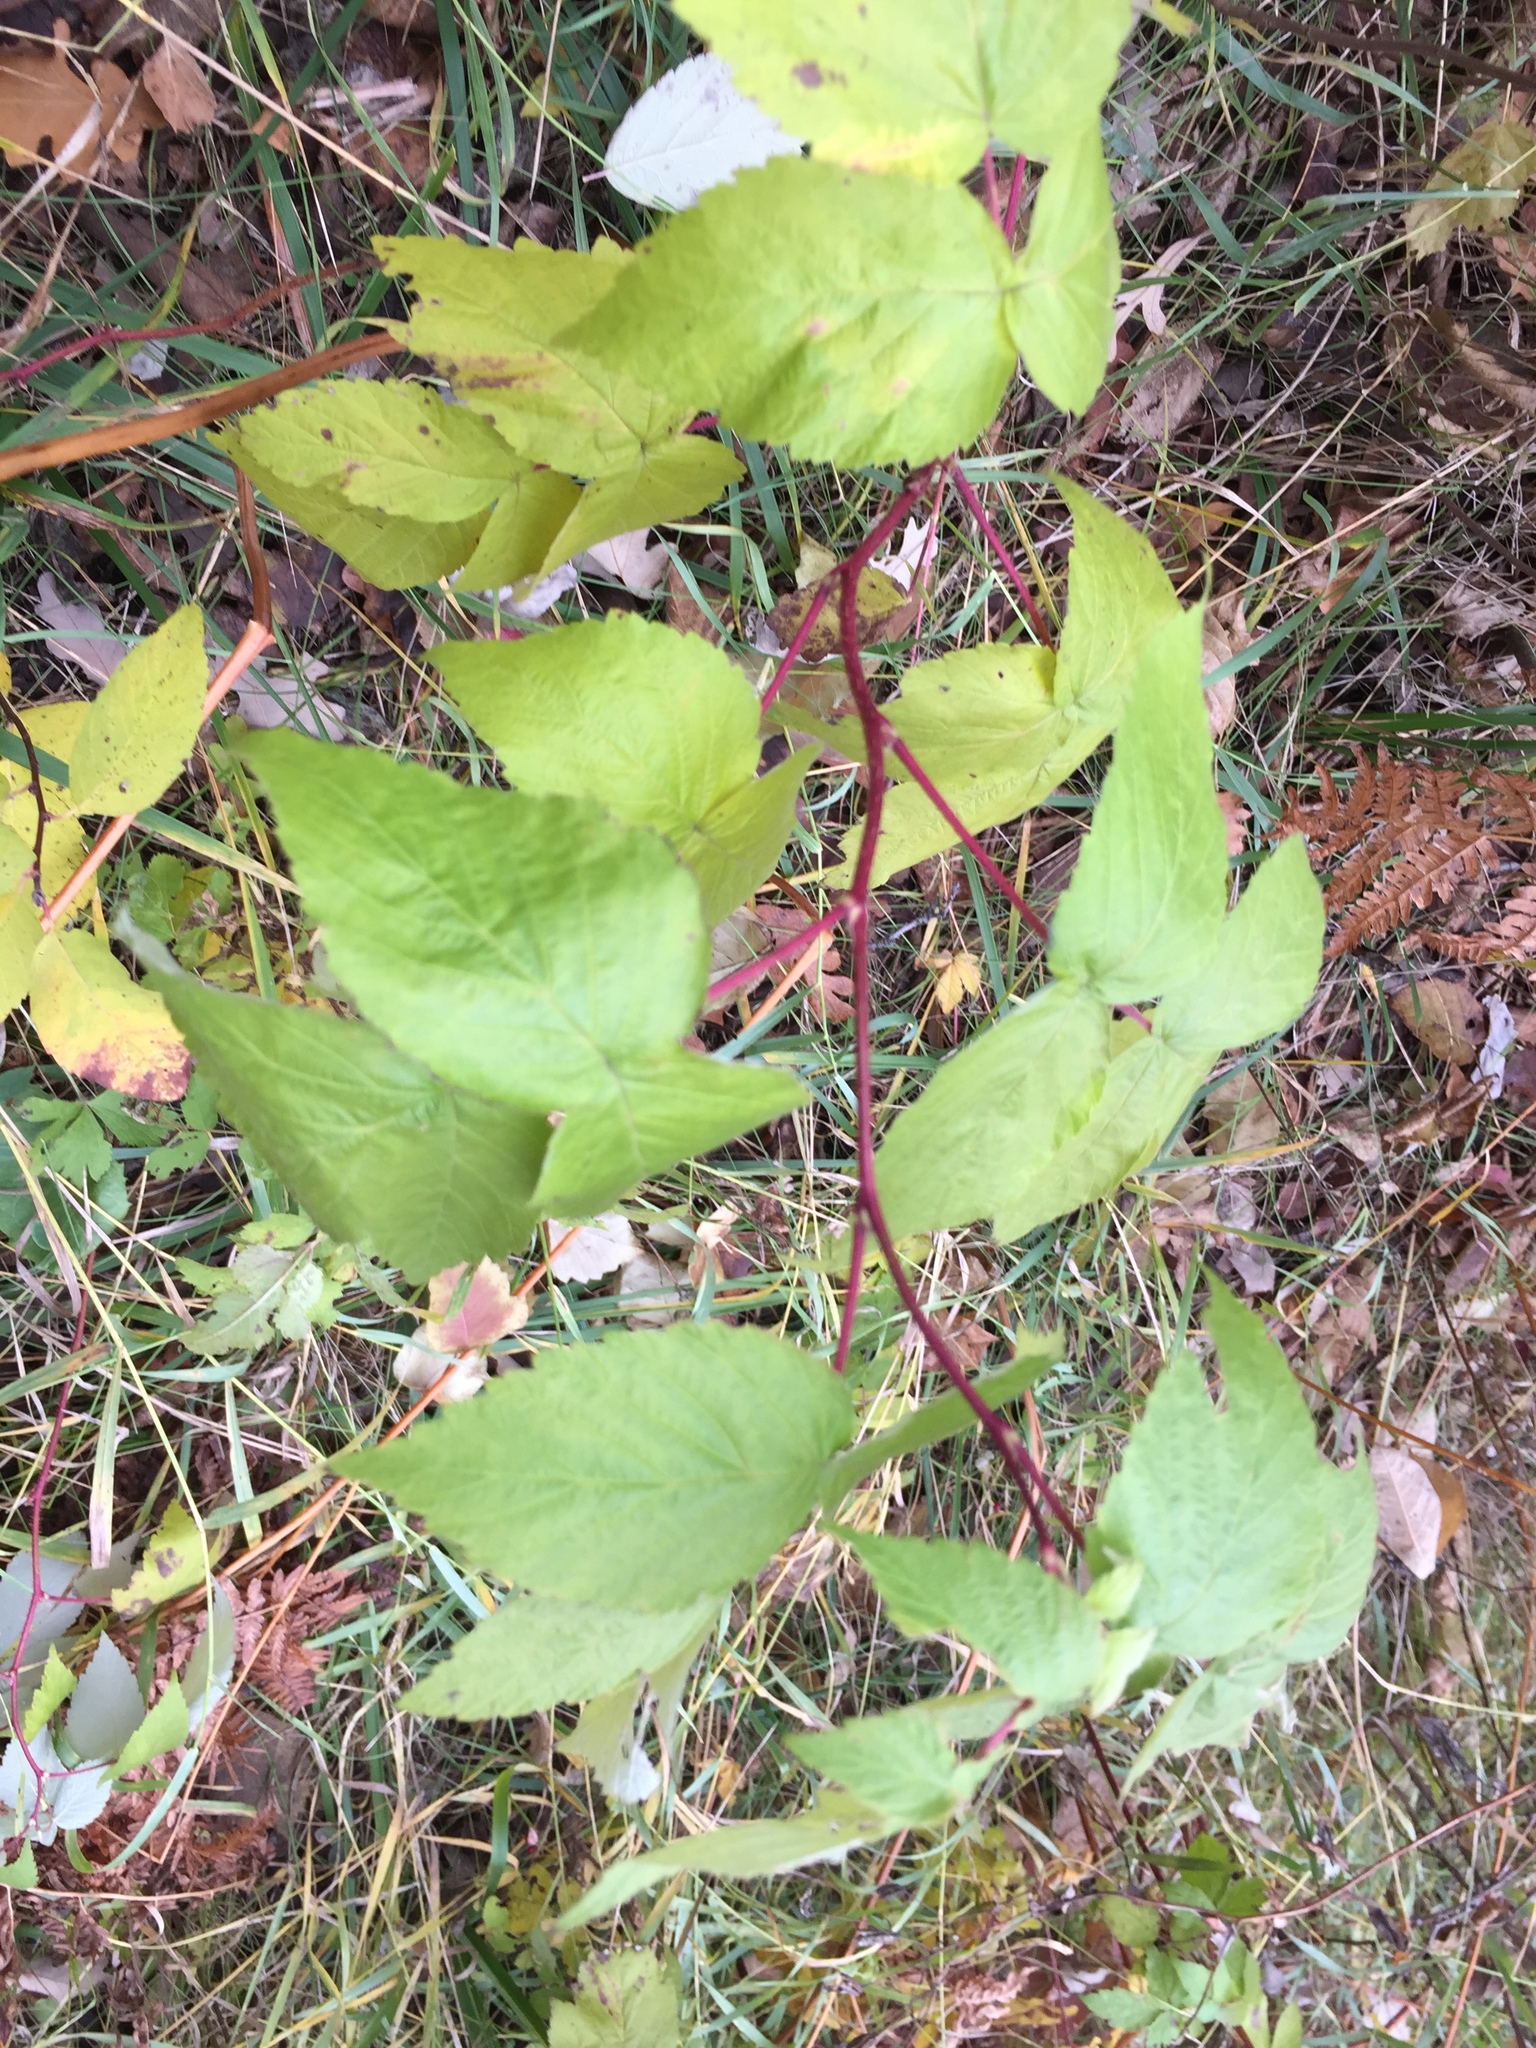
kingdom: Plantae
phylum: Tracheophyta
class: Magnoliopsida
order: Rosales
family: Rosaceae
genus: Rubus
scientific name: Rubus idaeus
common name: Raspberry
